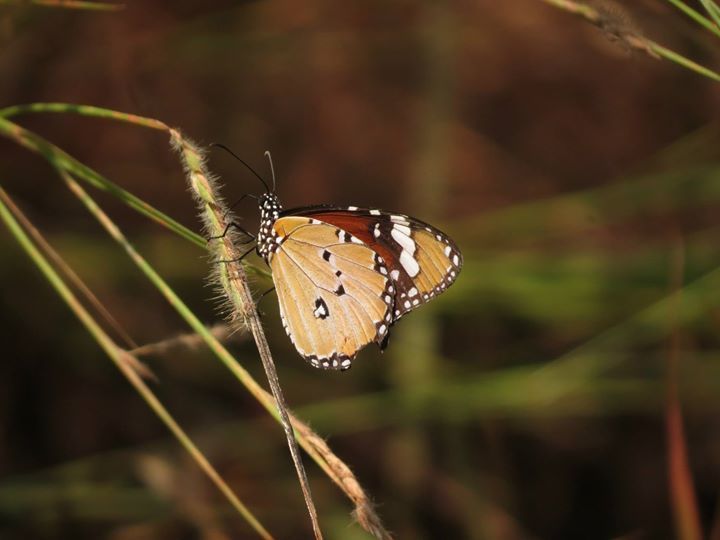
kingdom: Animalia
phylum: Arthropoda
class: Insecta
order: Lepidoptera
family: Nymphalidae
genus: Danaus
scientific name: Danaus chrysippus
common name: Plain tiger
